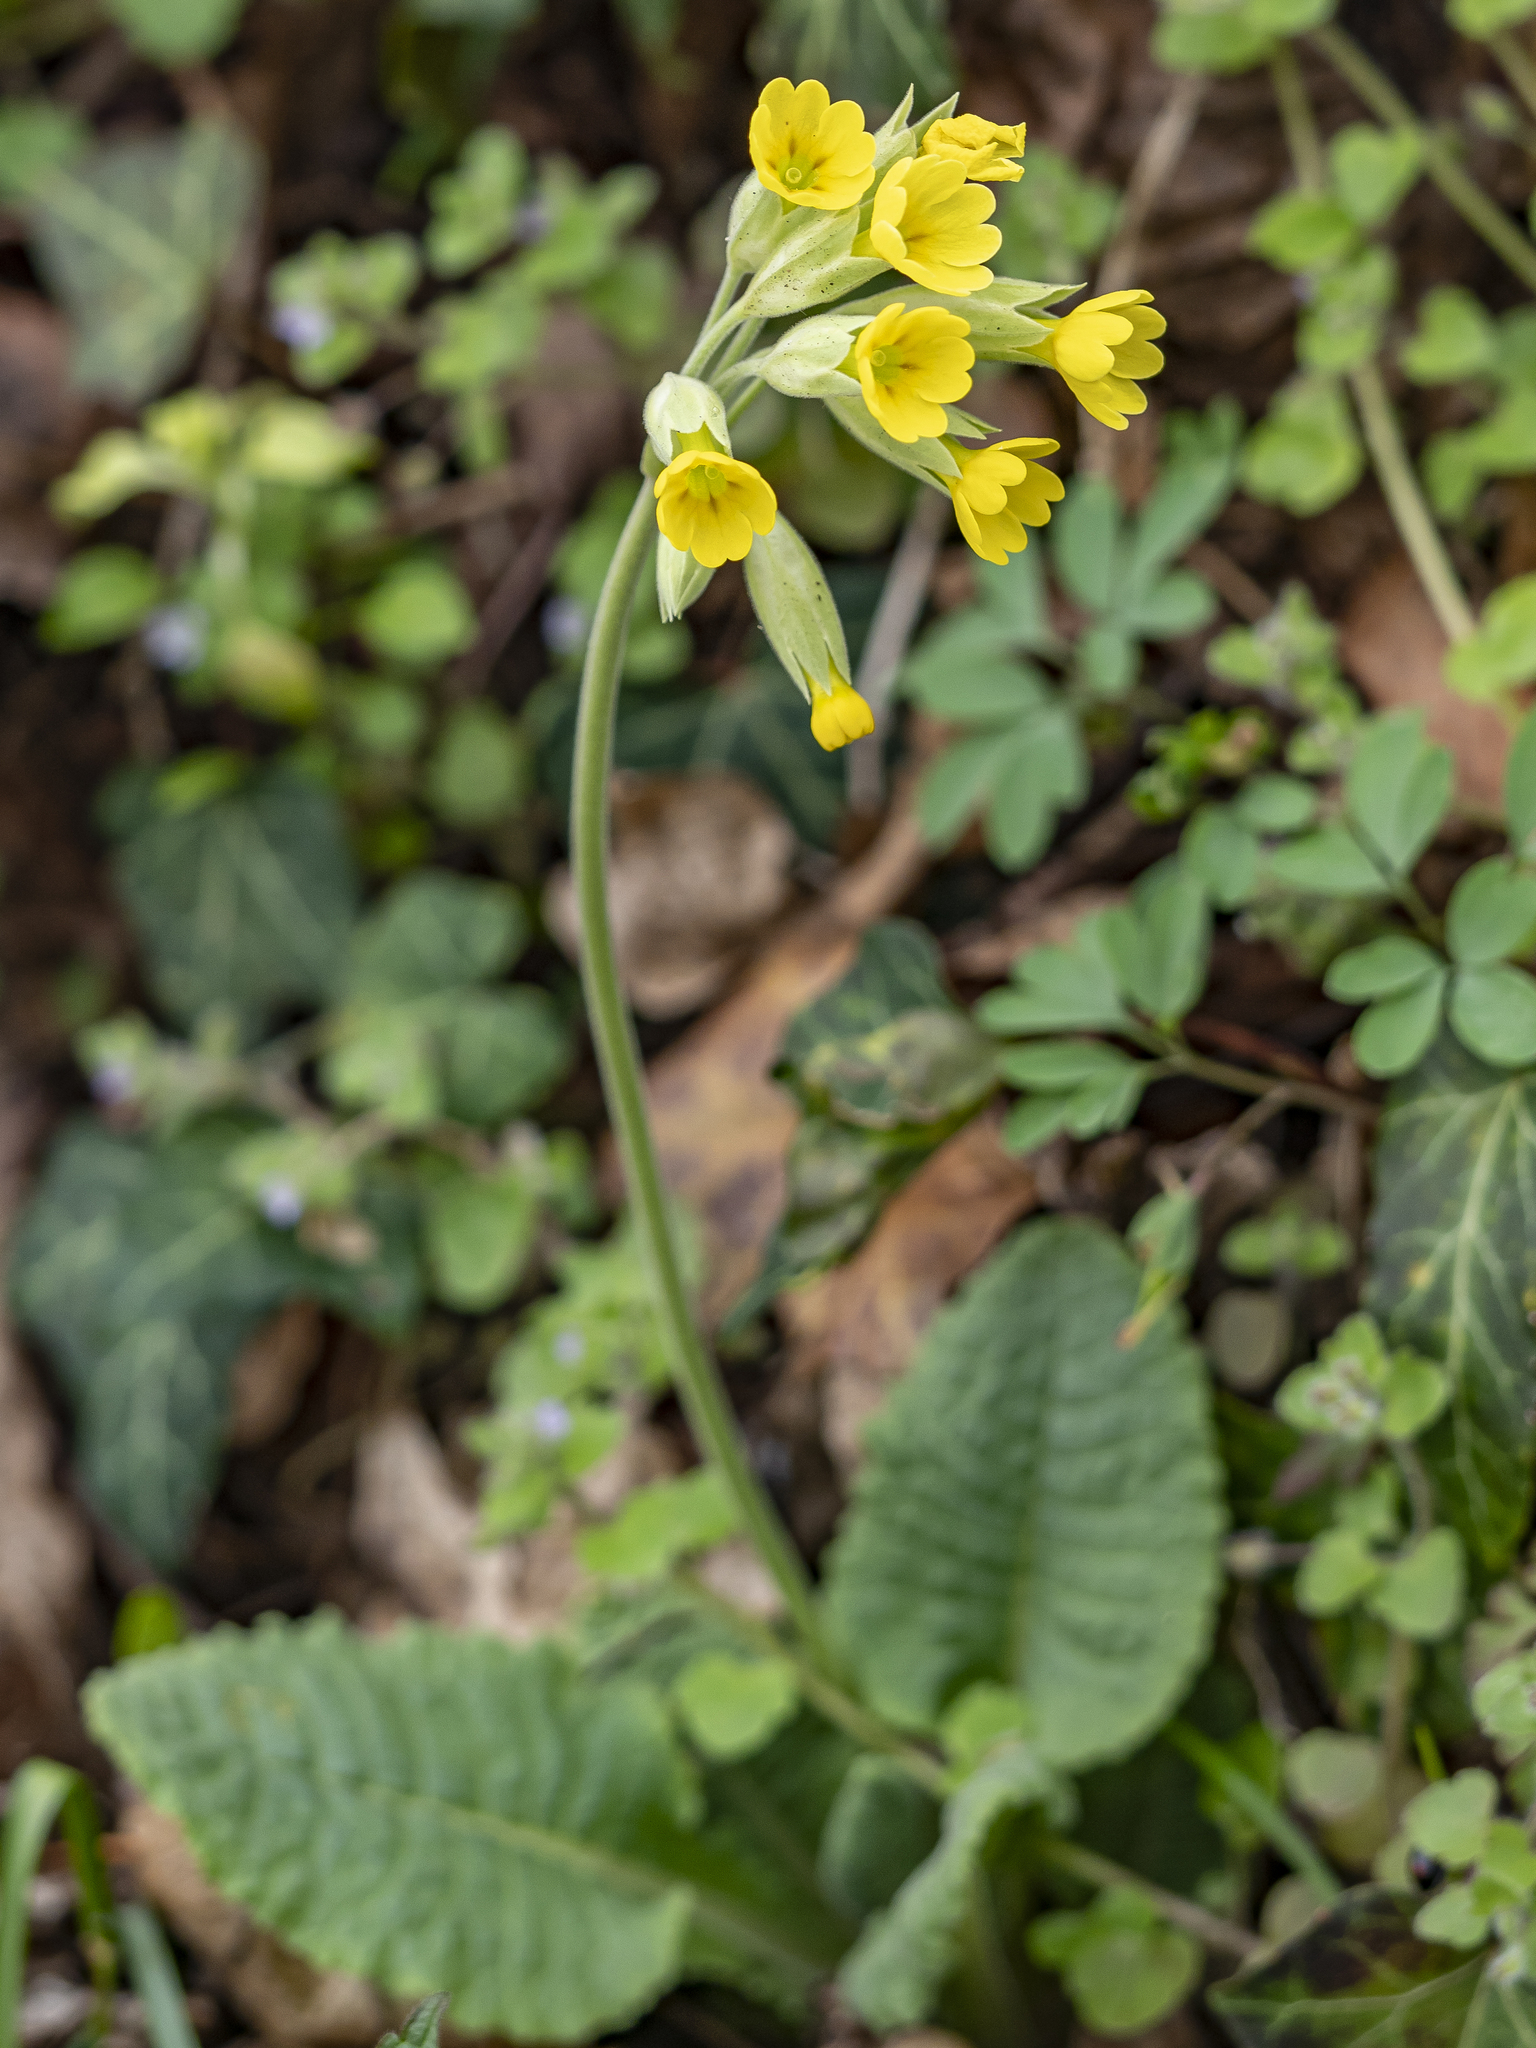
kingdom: Plantae
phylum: Tracheophyta
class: Magnoliopsida
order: Ericales
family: Primulaceae
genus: Primula
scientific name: Primula veris
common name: Cowslip
